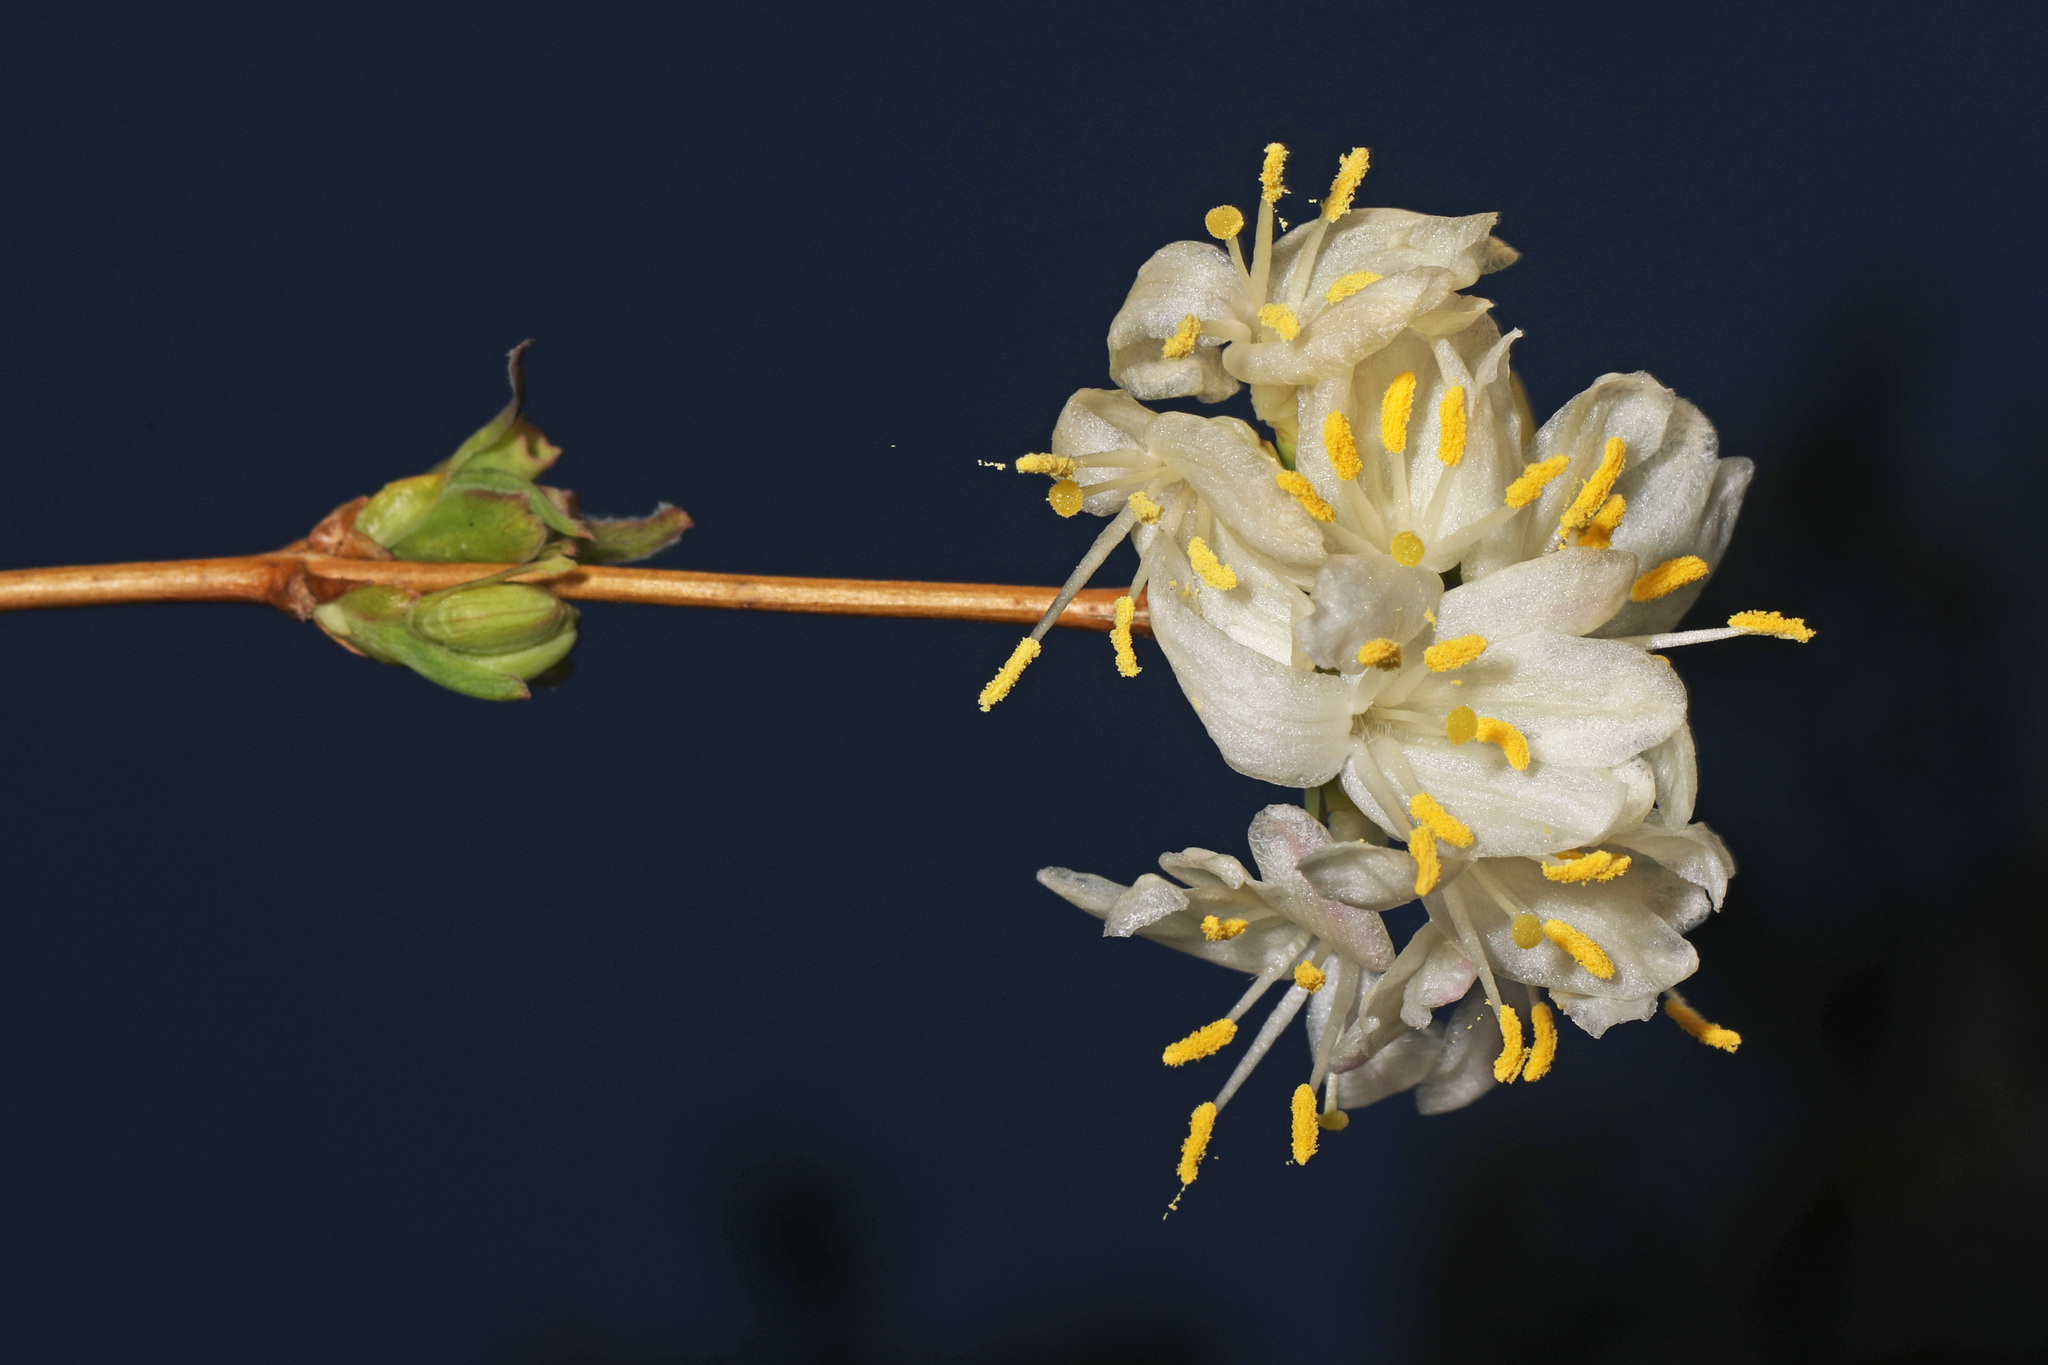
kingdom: Plantae
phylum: Tracheophyta
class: Magnoliopsida
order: Dipsacales
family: Caprifoliaceae
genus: Lonicera
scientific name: Lonicera fragrantissima
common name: Fragrant honeysuckle
